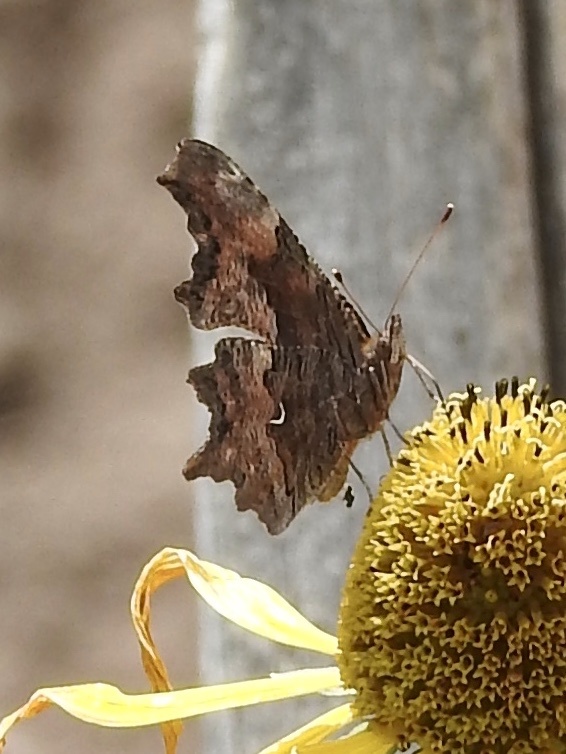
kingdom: Animalia
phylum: Arthropoda
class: Insecta
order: Lepidoptera
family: Nymphalidae
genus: Polygonia
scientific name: Polygonia gracilis
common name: Hoary comma
